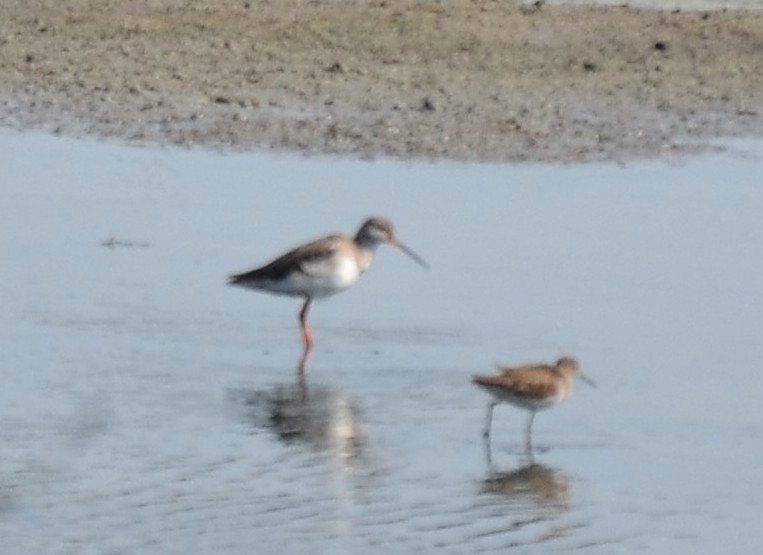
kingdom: Animalia
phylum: Chordata
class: Aves
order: Charadriiformes
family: Scolopacidae
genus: Tringa
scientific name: Tringa totanus
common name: Common redshank
